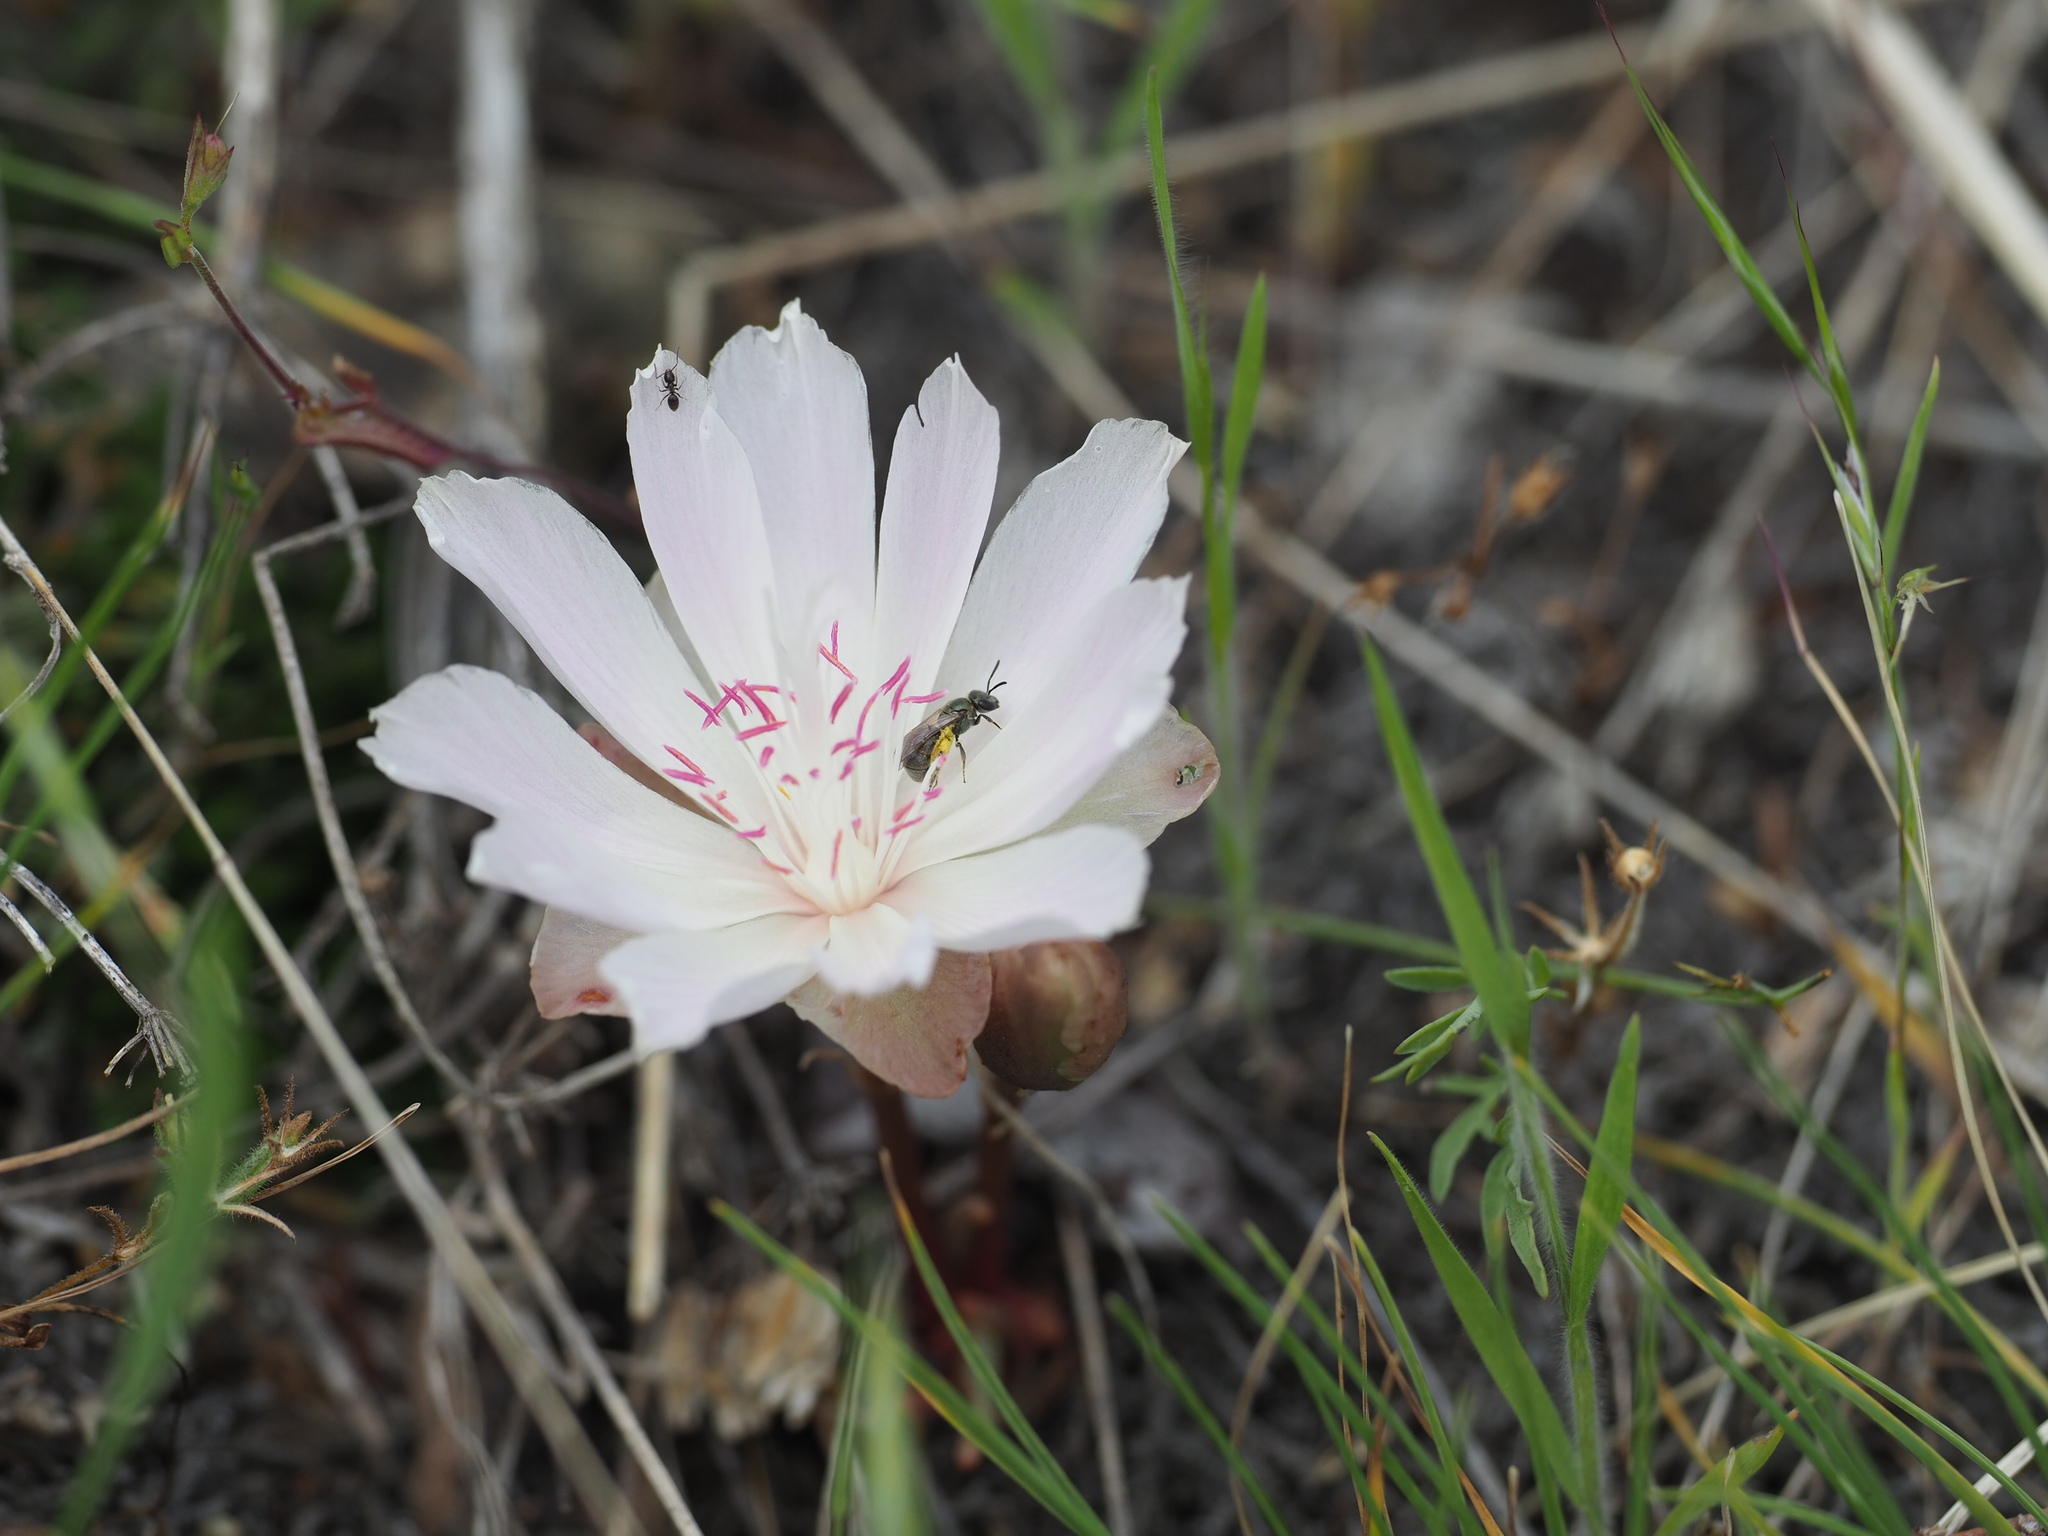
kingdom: Plantae
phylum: Tracheophyta
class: Magnoliopsida
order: Caryophyllales
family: Montiaceae
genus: Lewisia
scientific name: Lewisia rediviva
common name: Bitter-root
